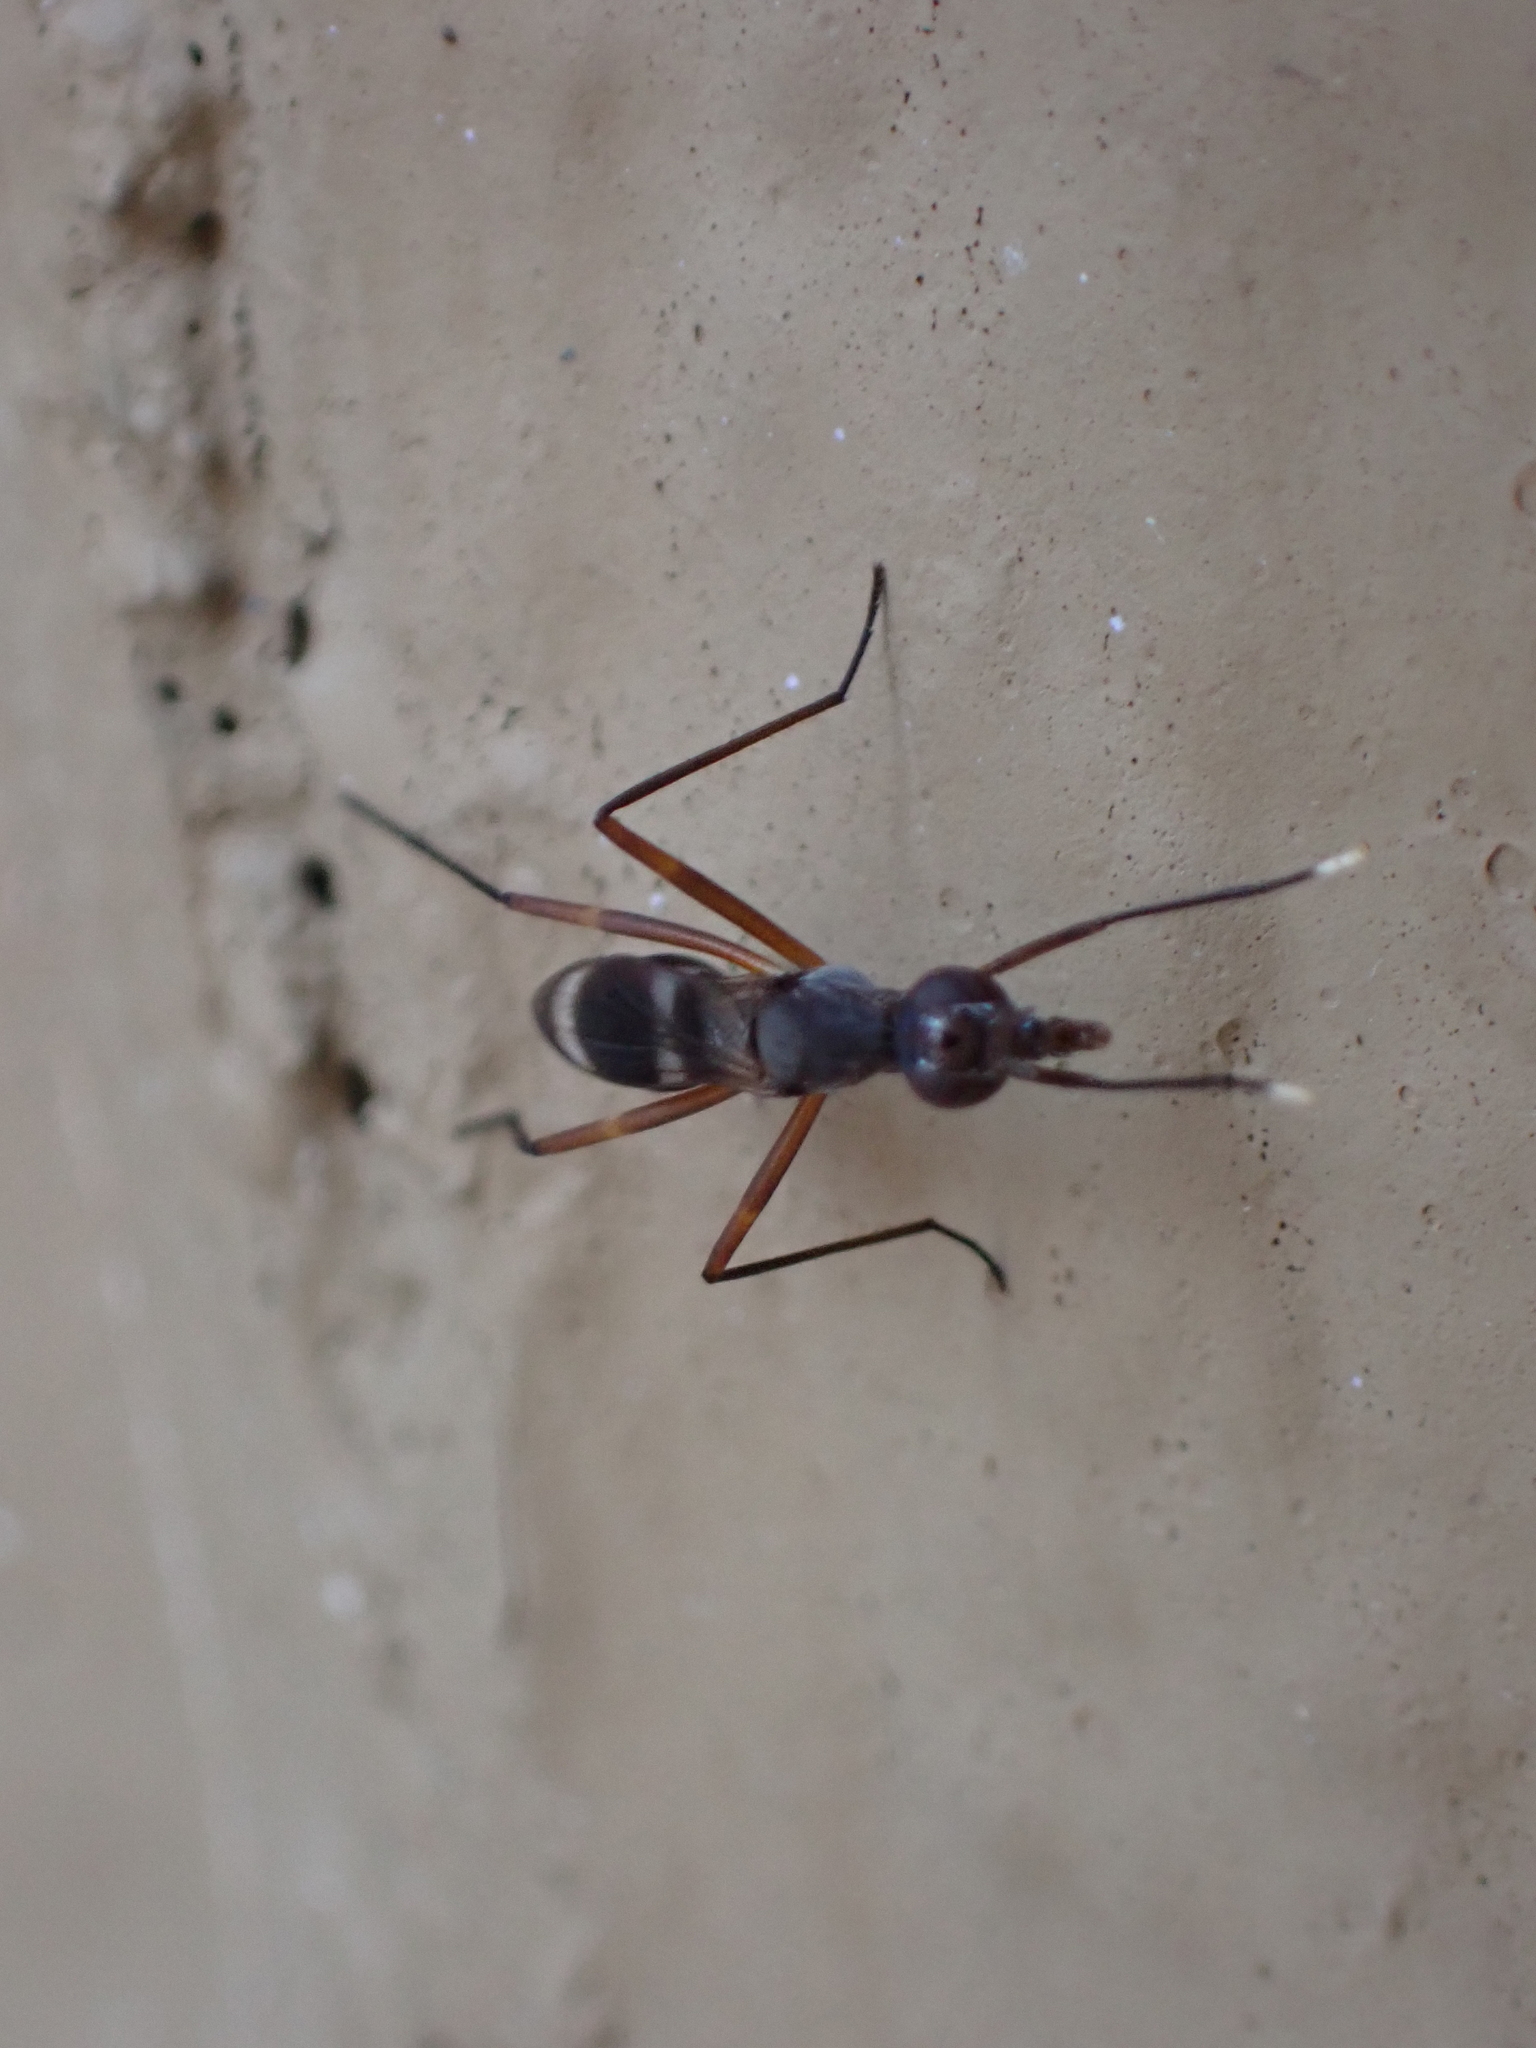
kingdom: Animalia
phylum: Arthropoda
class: Insecta
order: Diptera
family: Micropezidae
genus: Taeniaptera
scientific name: Taeniaptera trivittata
